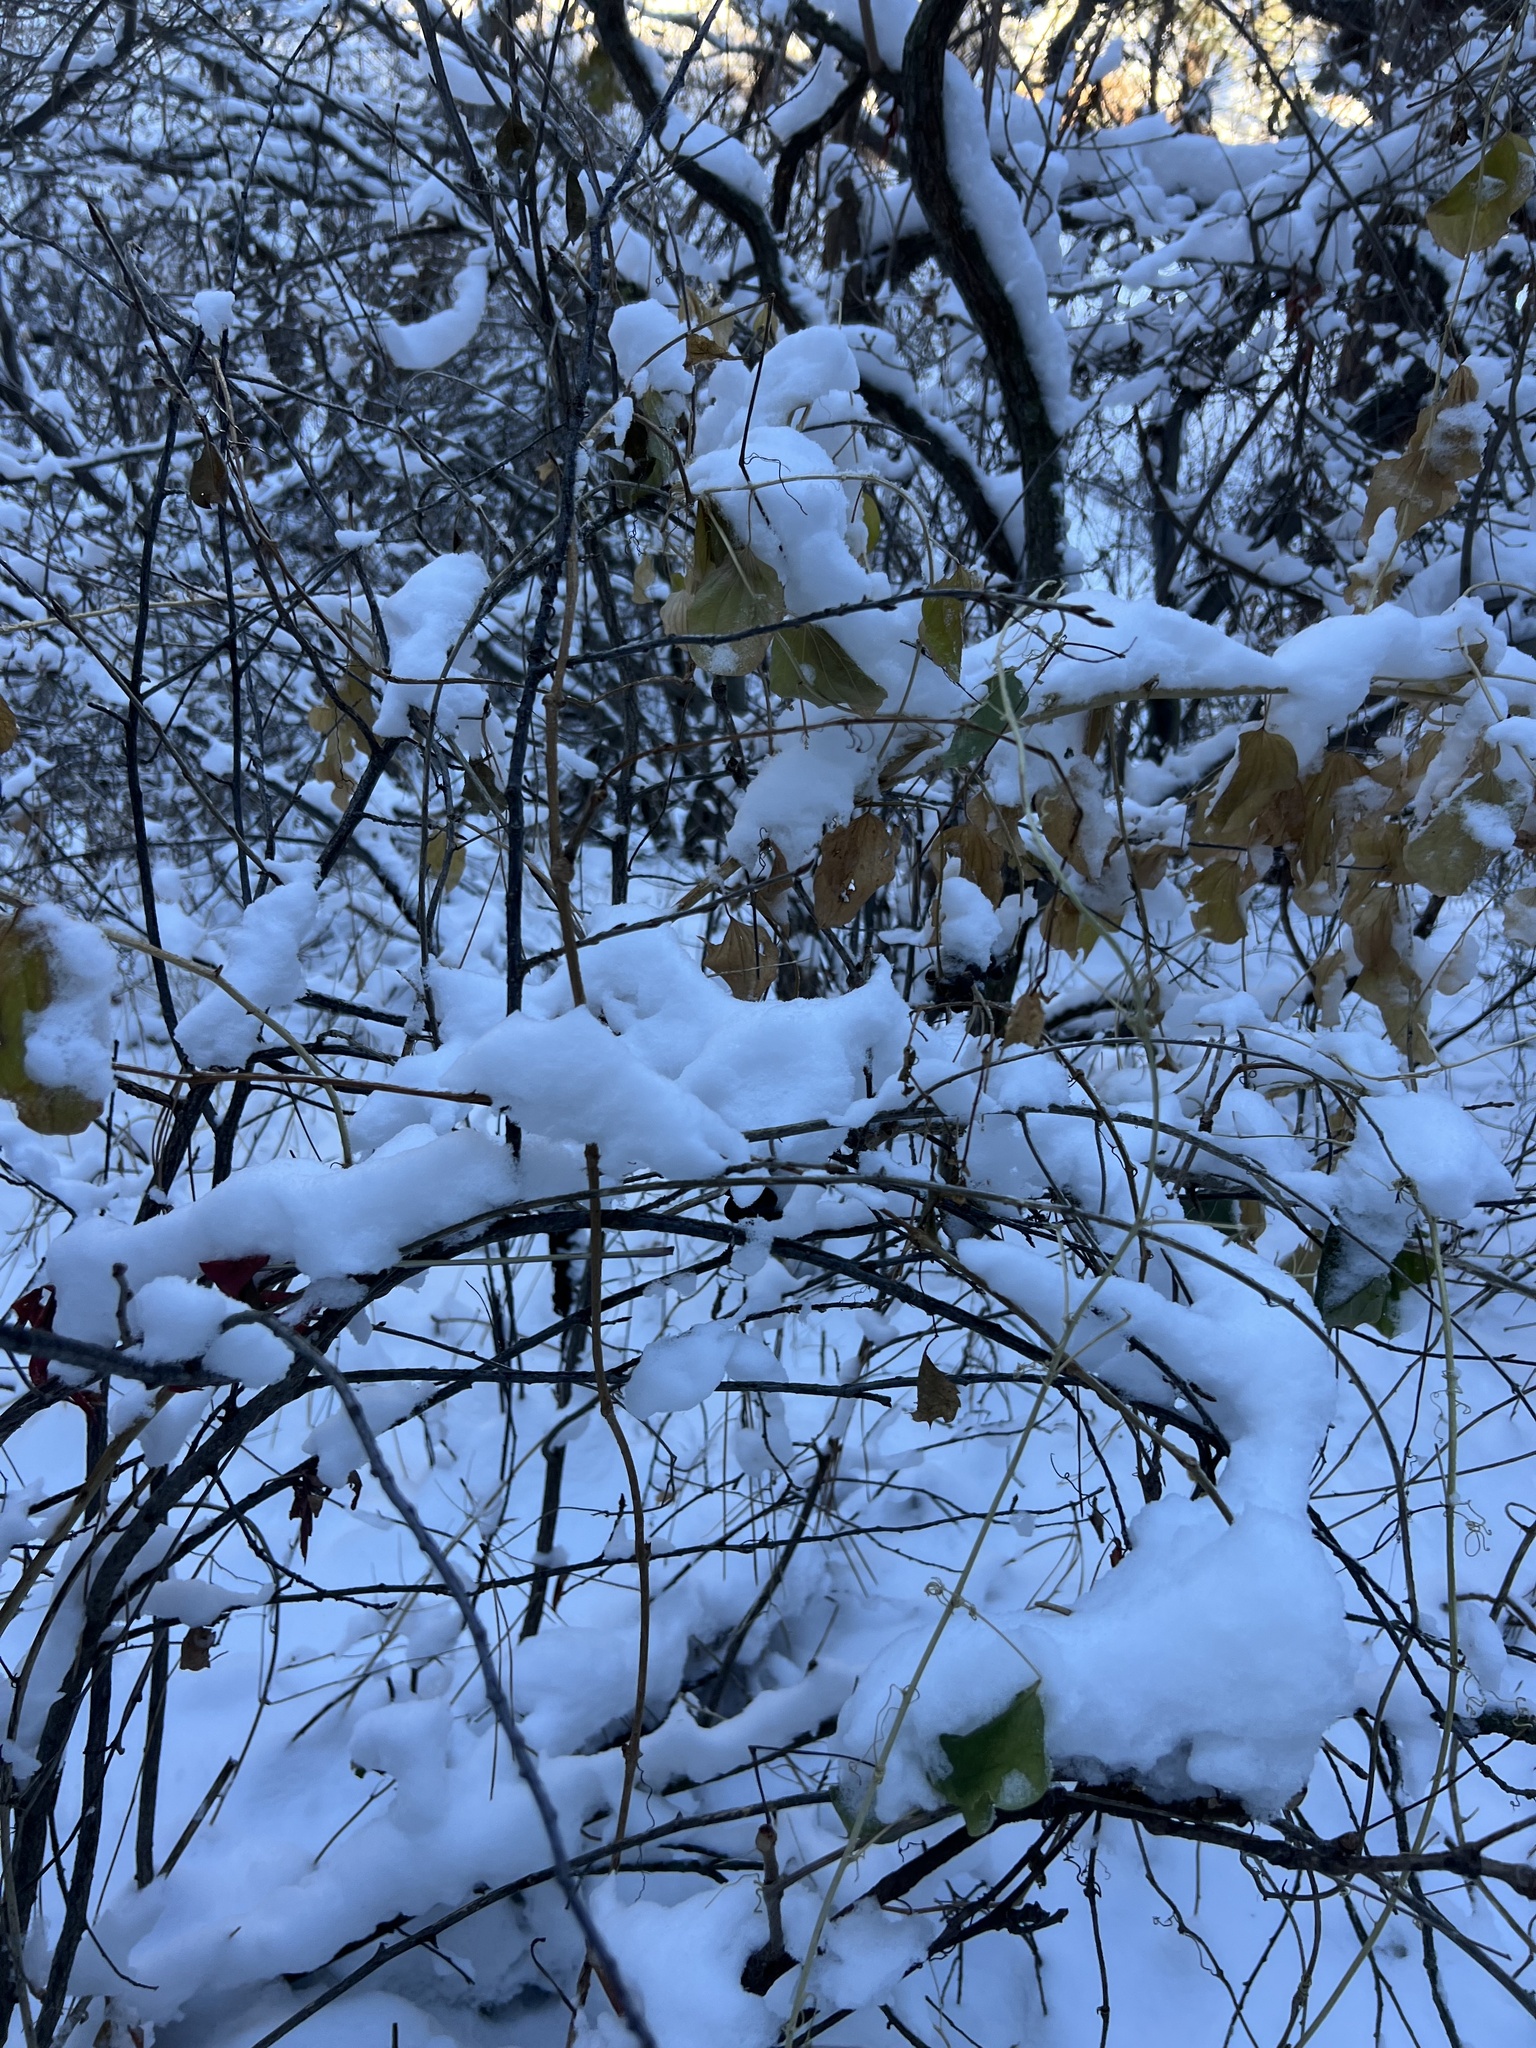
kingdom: Plantae
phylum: Tracheophyta
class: Liliopsida
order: Liliales
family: Smilacaceae
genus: Smilax
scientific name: Smilax lasioneura
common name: Blue ridge carrionflower
